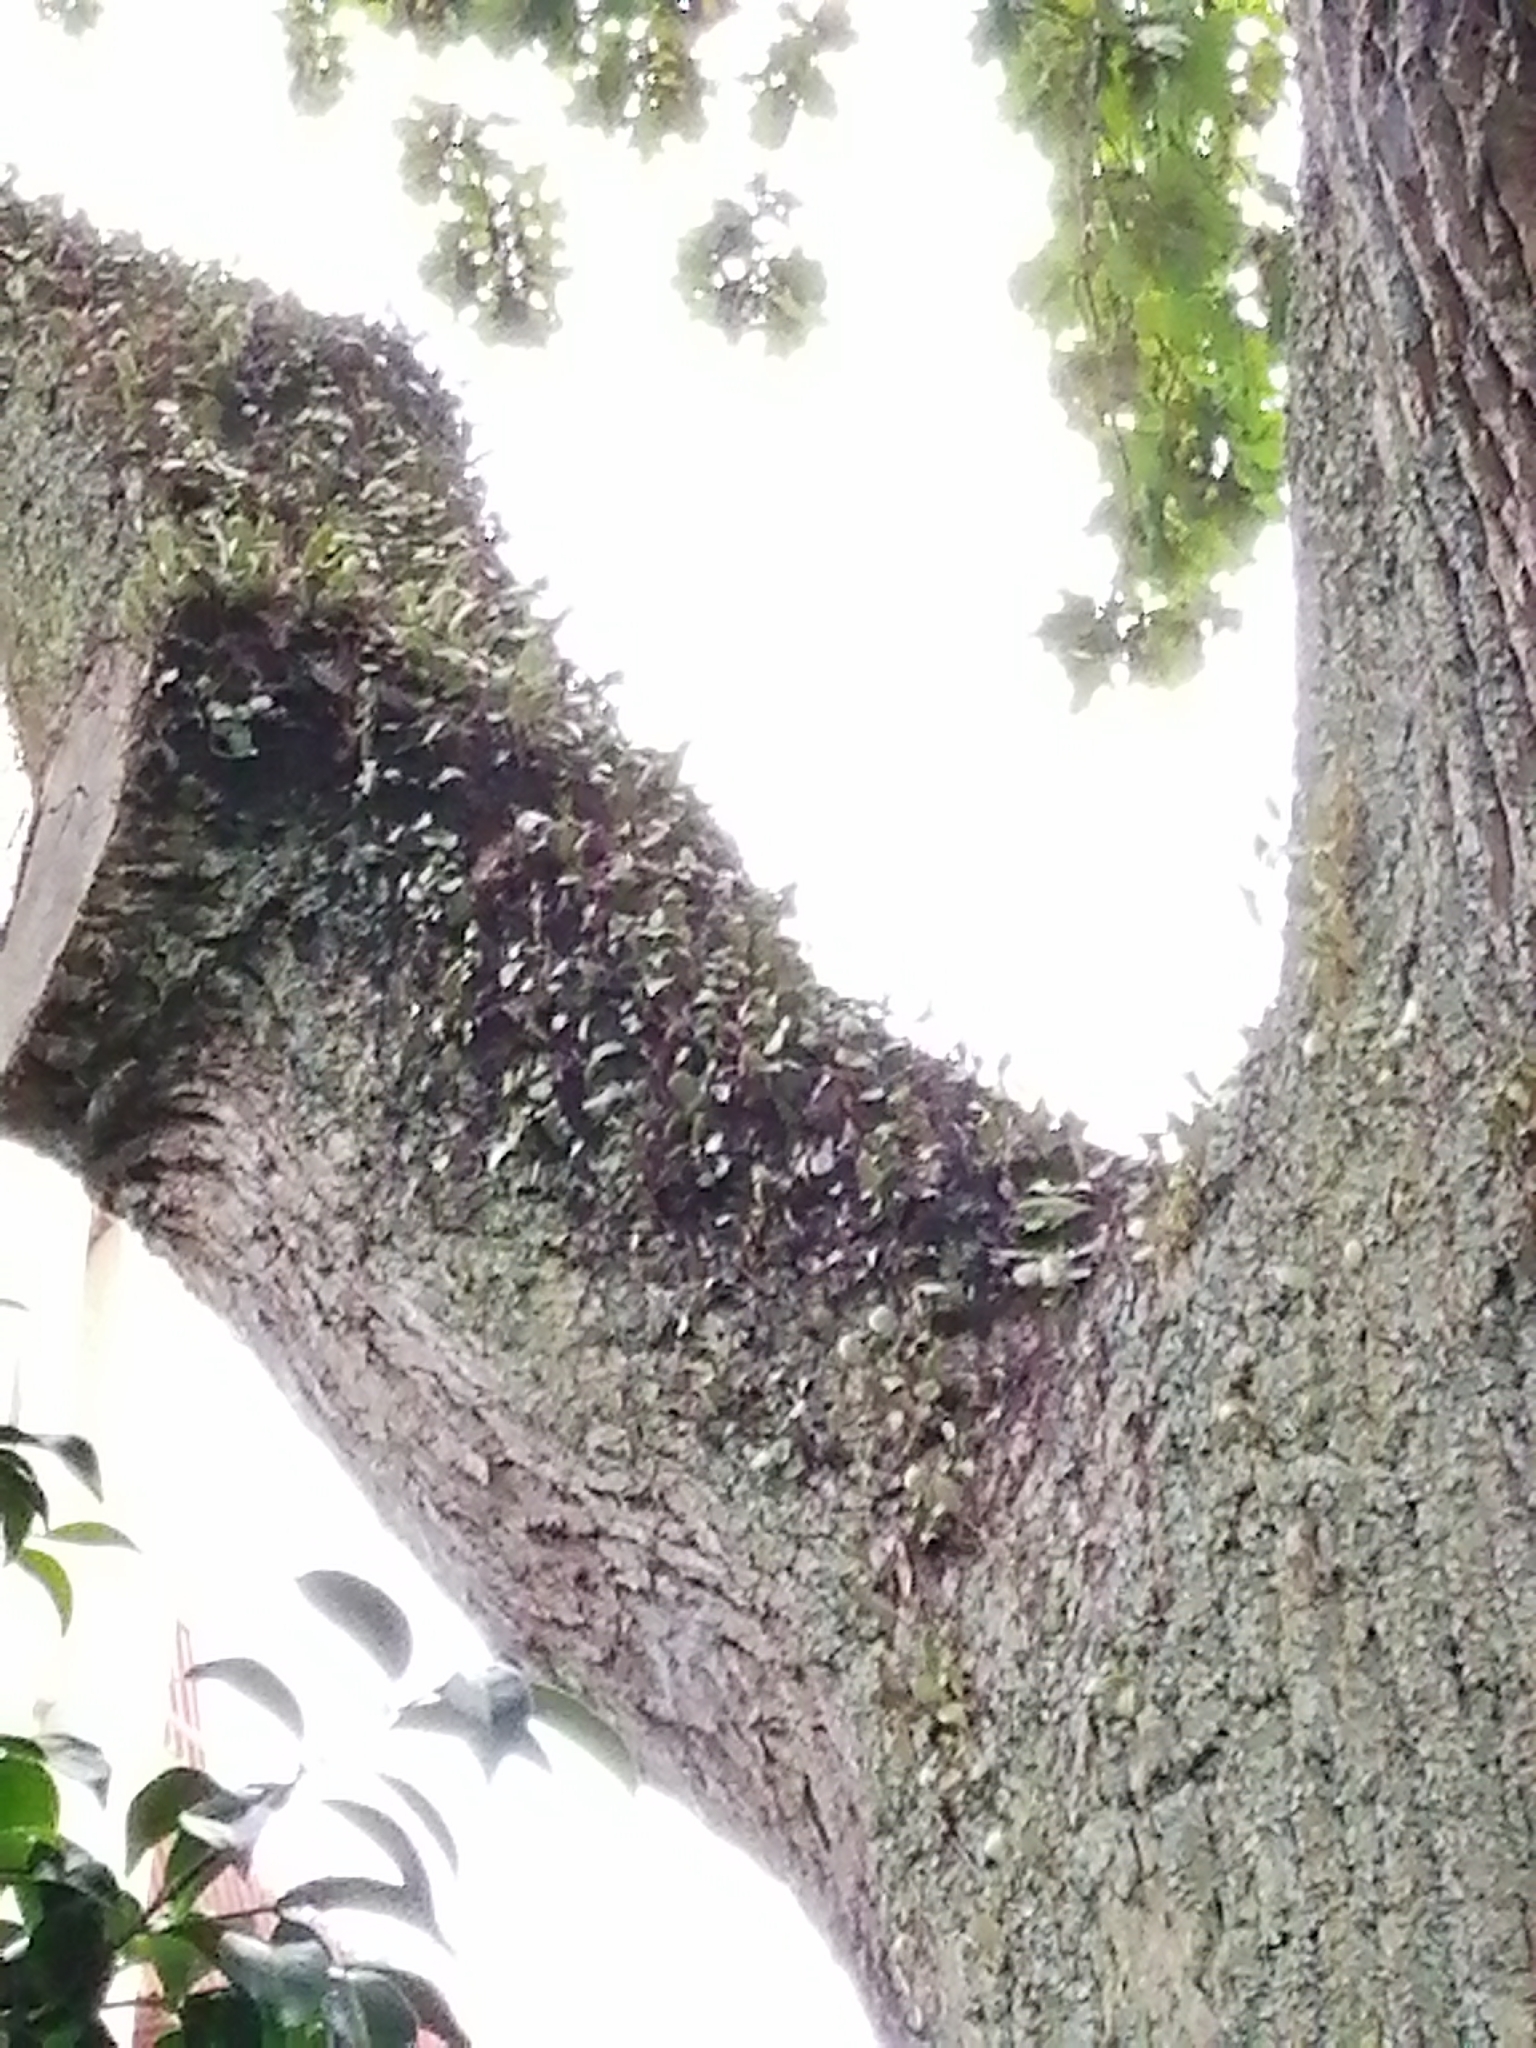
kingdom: Plantae
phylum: Tracheophyta
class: Polypodiopsida
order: Polypodiales
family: Polypodiaceae
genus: Pyrrosia
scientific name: Pyrrosia eleagnifolia
